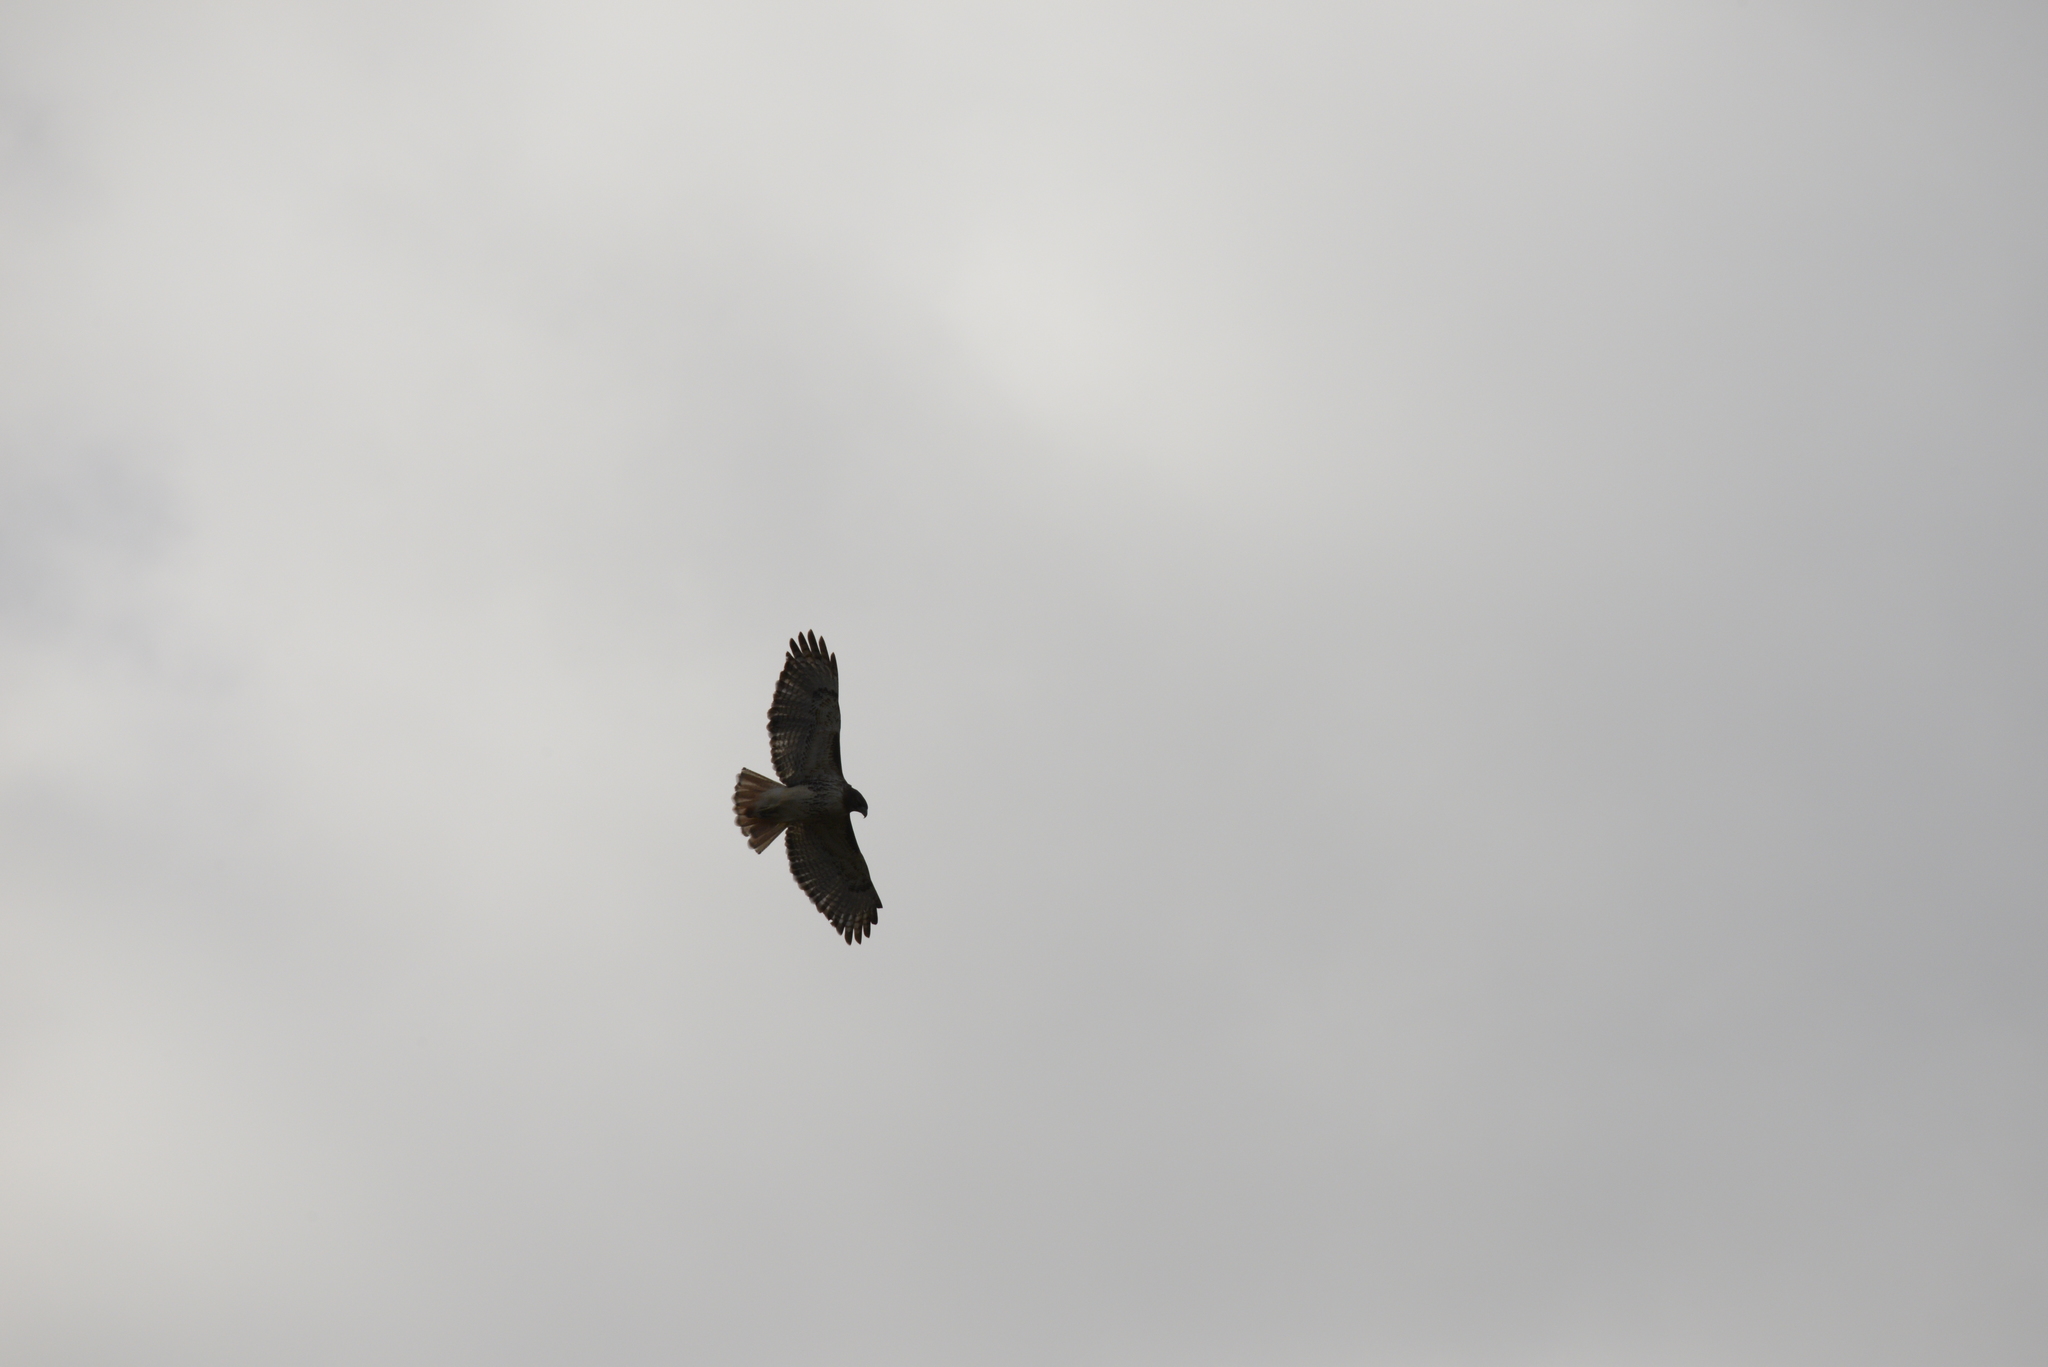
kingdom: Animalia
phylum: Chordata
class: Aves
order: Accipitriformes
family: Accipitridae
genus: Buteo
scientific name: Buteo jamaicensis
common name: Red-tailed hawk
